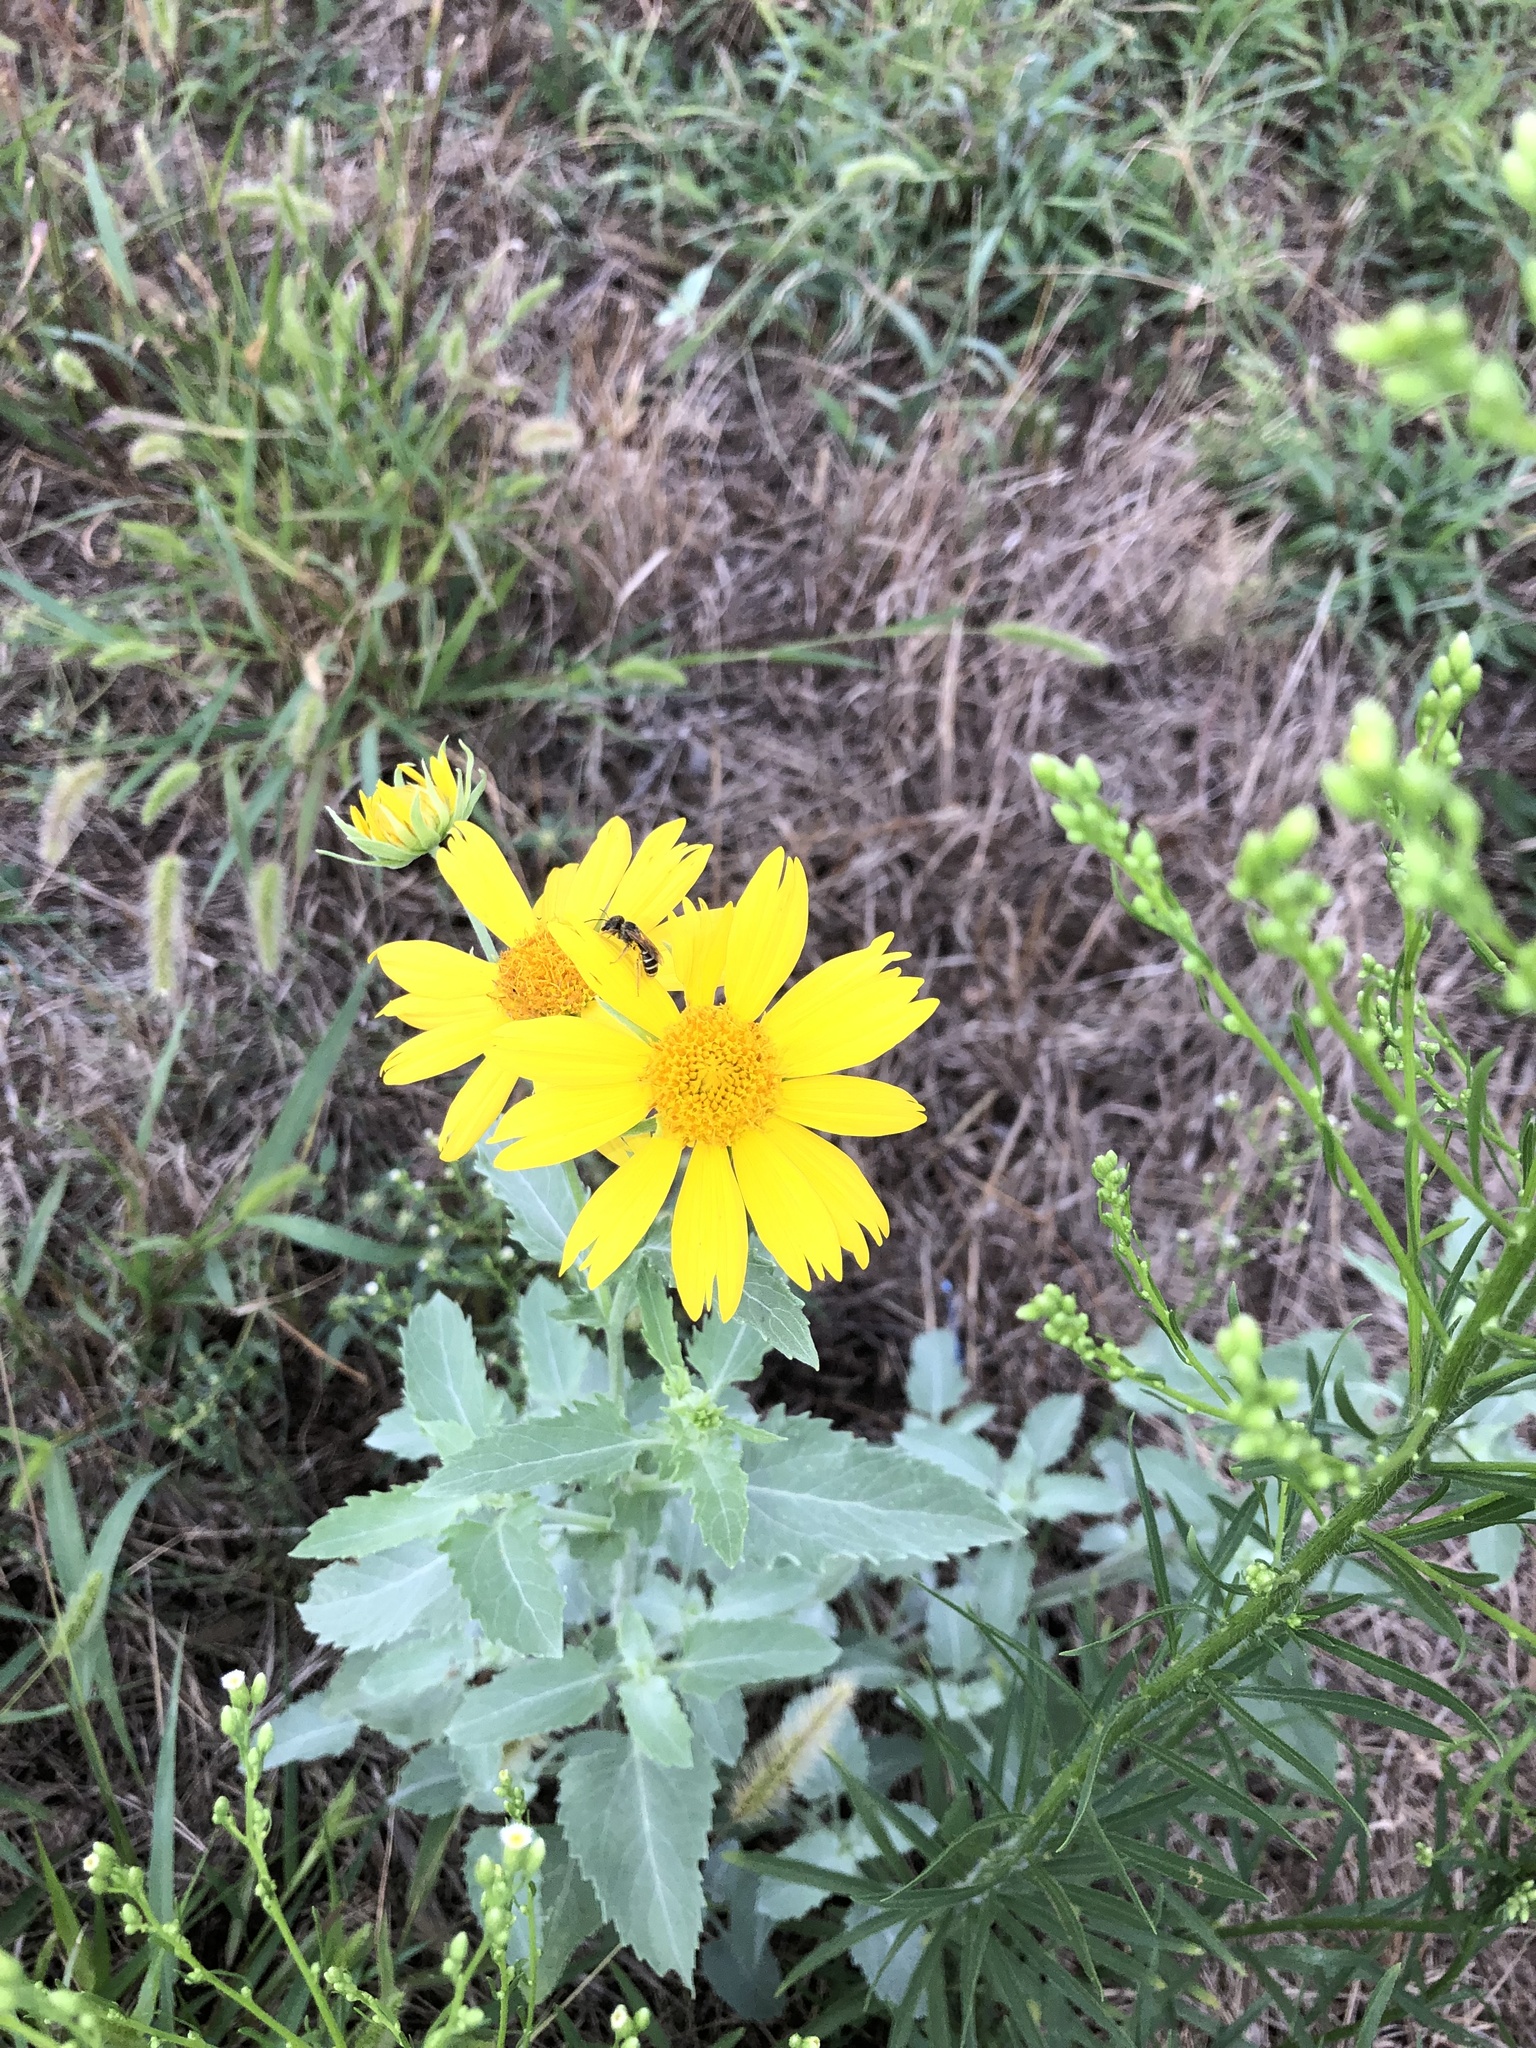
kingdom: Plantae
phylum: Tracheophyta
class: Magnoliopsida
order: Asterales
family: Asteraceae
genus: Verbesina
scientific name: Verbesina encelioides
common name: Golden crownbeard
